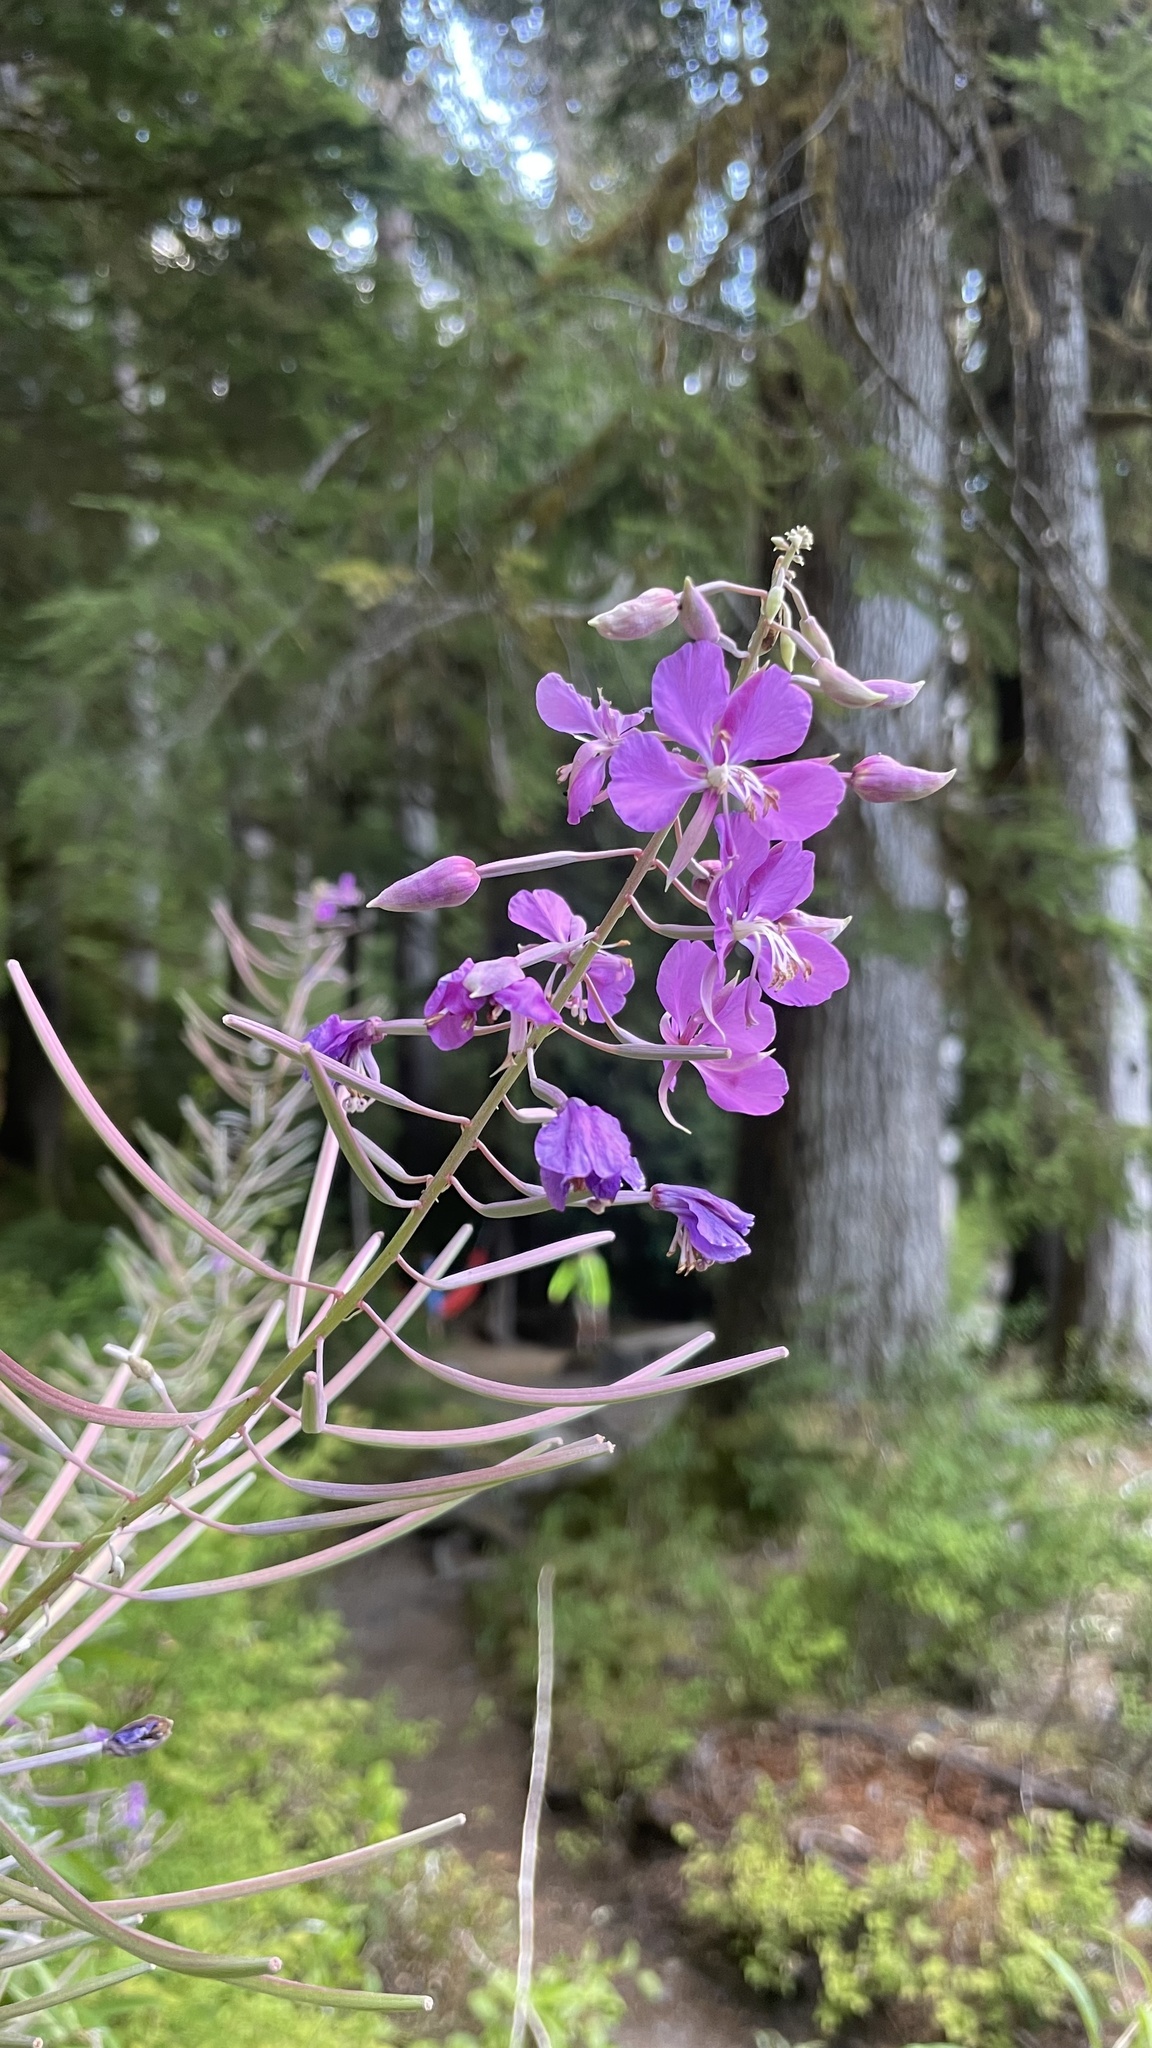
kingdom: Plantae
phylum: Tracheophyta
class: Magnoliopsida
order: Myrtales
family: Onagraceae
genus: Chamaenerion
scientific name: Chamaenerion angustifolium
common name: Fireweed
